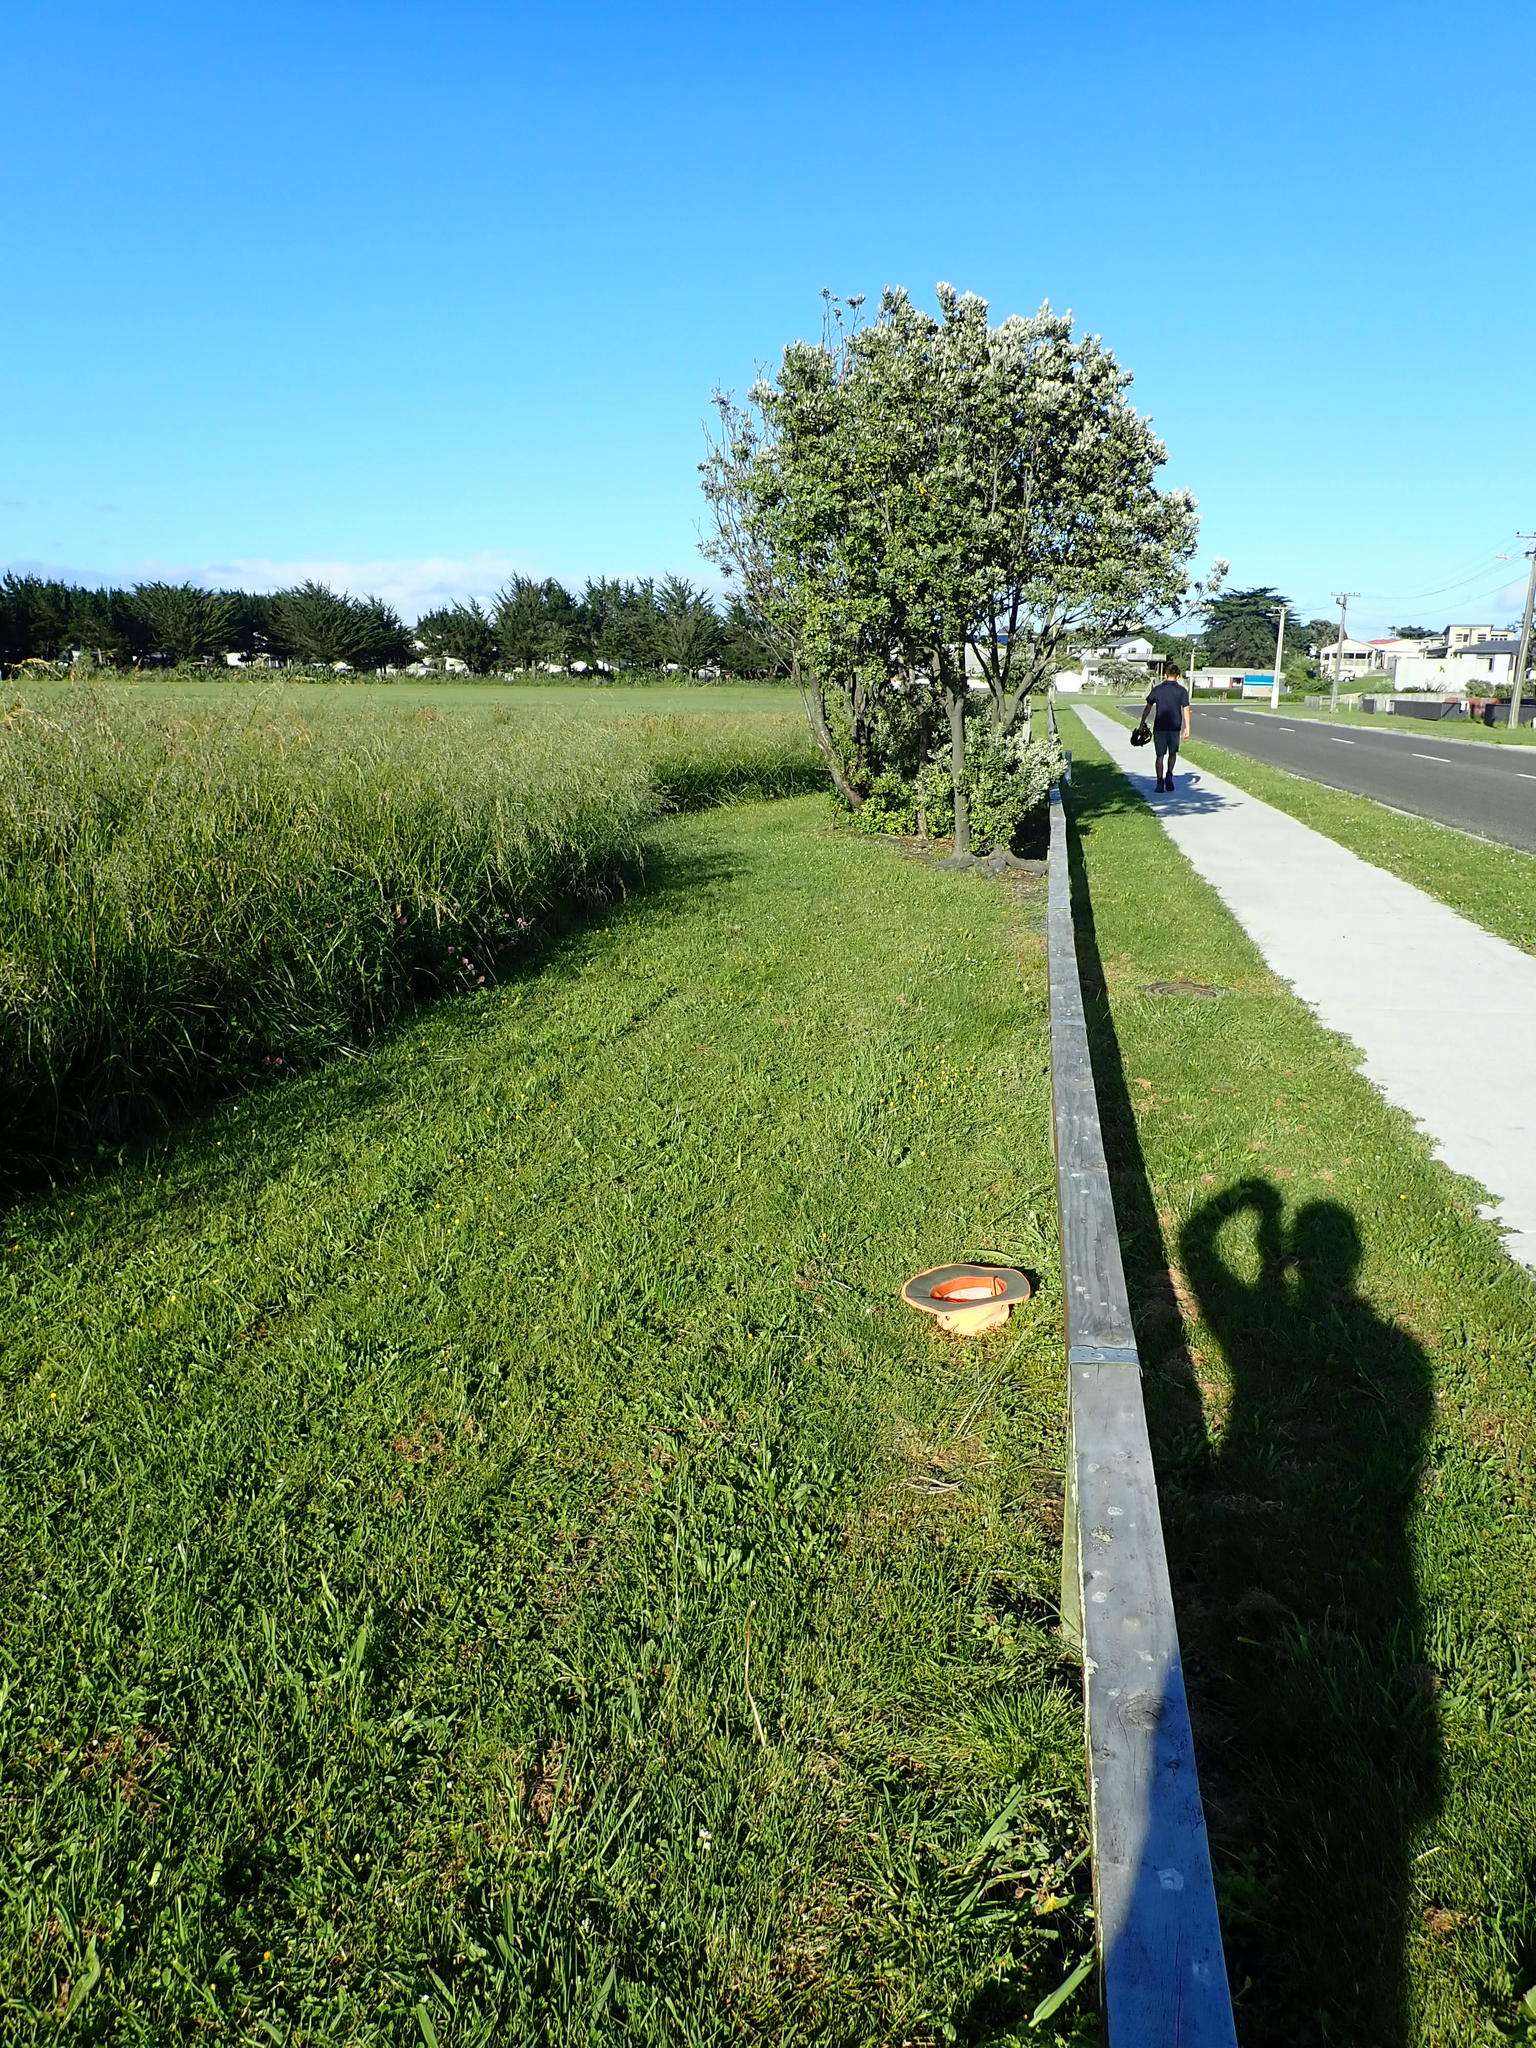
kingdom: Plantae
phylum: Tracheophyta
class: Magnoliopsida
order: Ericales
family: Primulaceae
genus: Lysimachia
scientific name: Lysimachia arvensis
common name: Scarlet pimpernel
